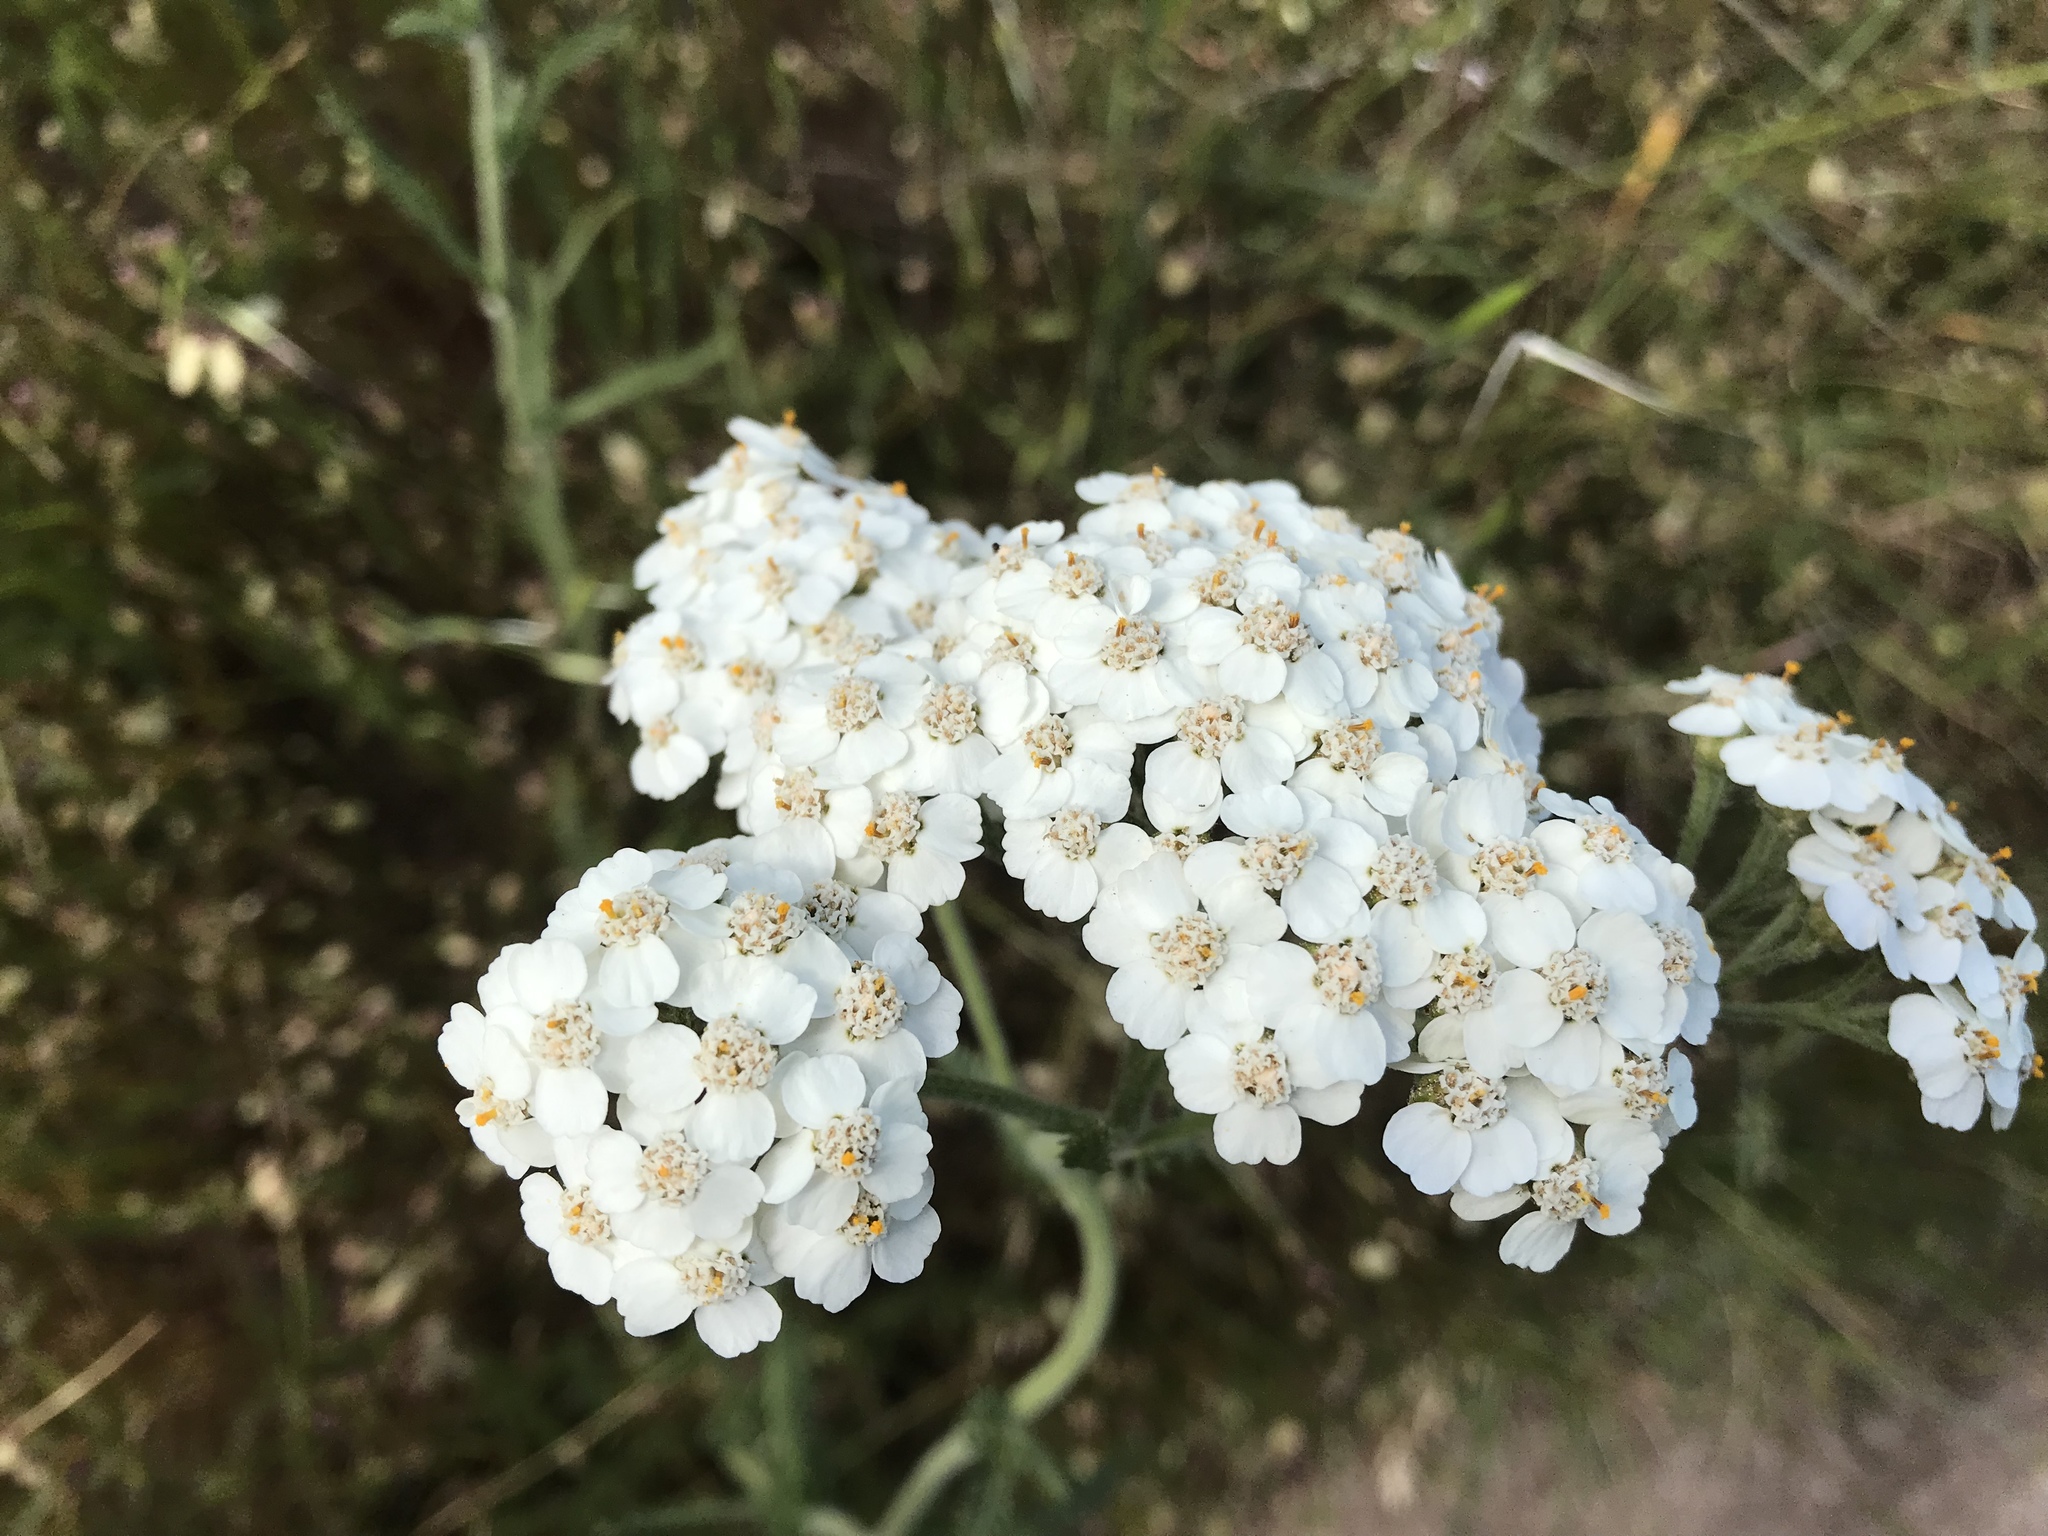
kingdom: Plantae
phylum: Tracheophyta
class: Magnoliopsida
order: Asterales
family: Asteraceae
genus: Achillea
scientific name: Achillea millefolium
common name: Yarrow
